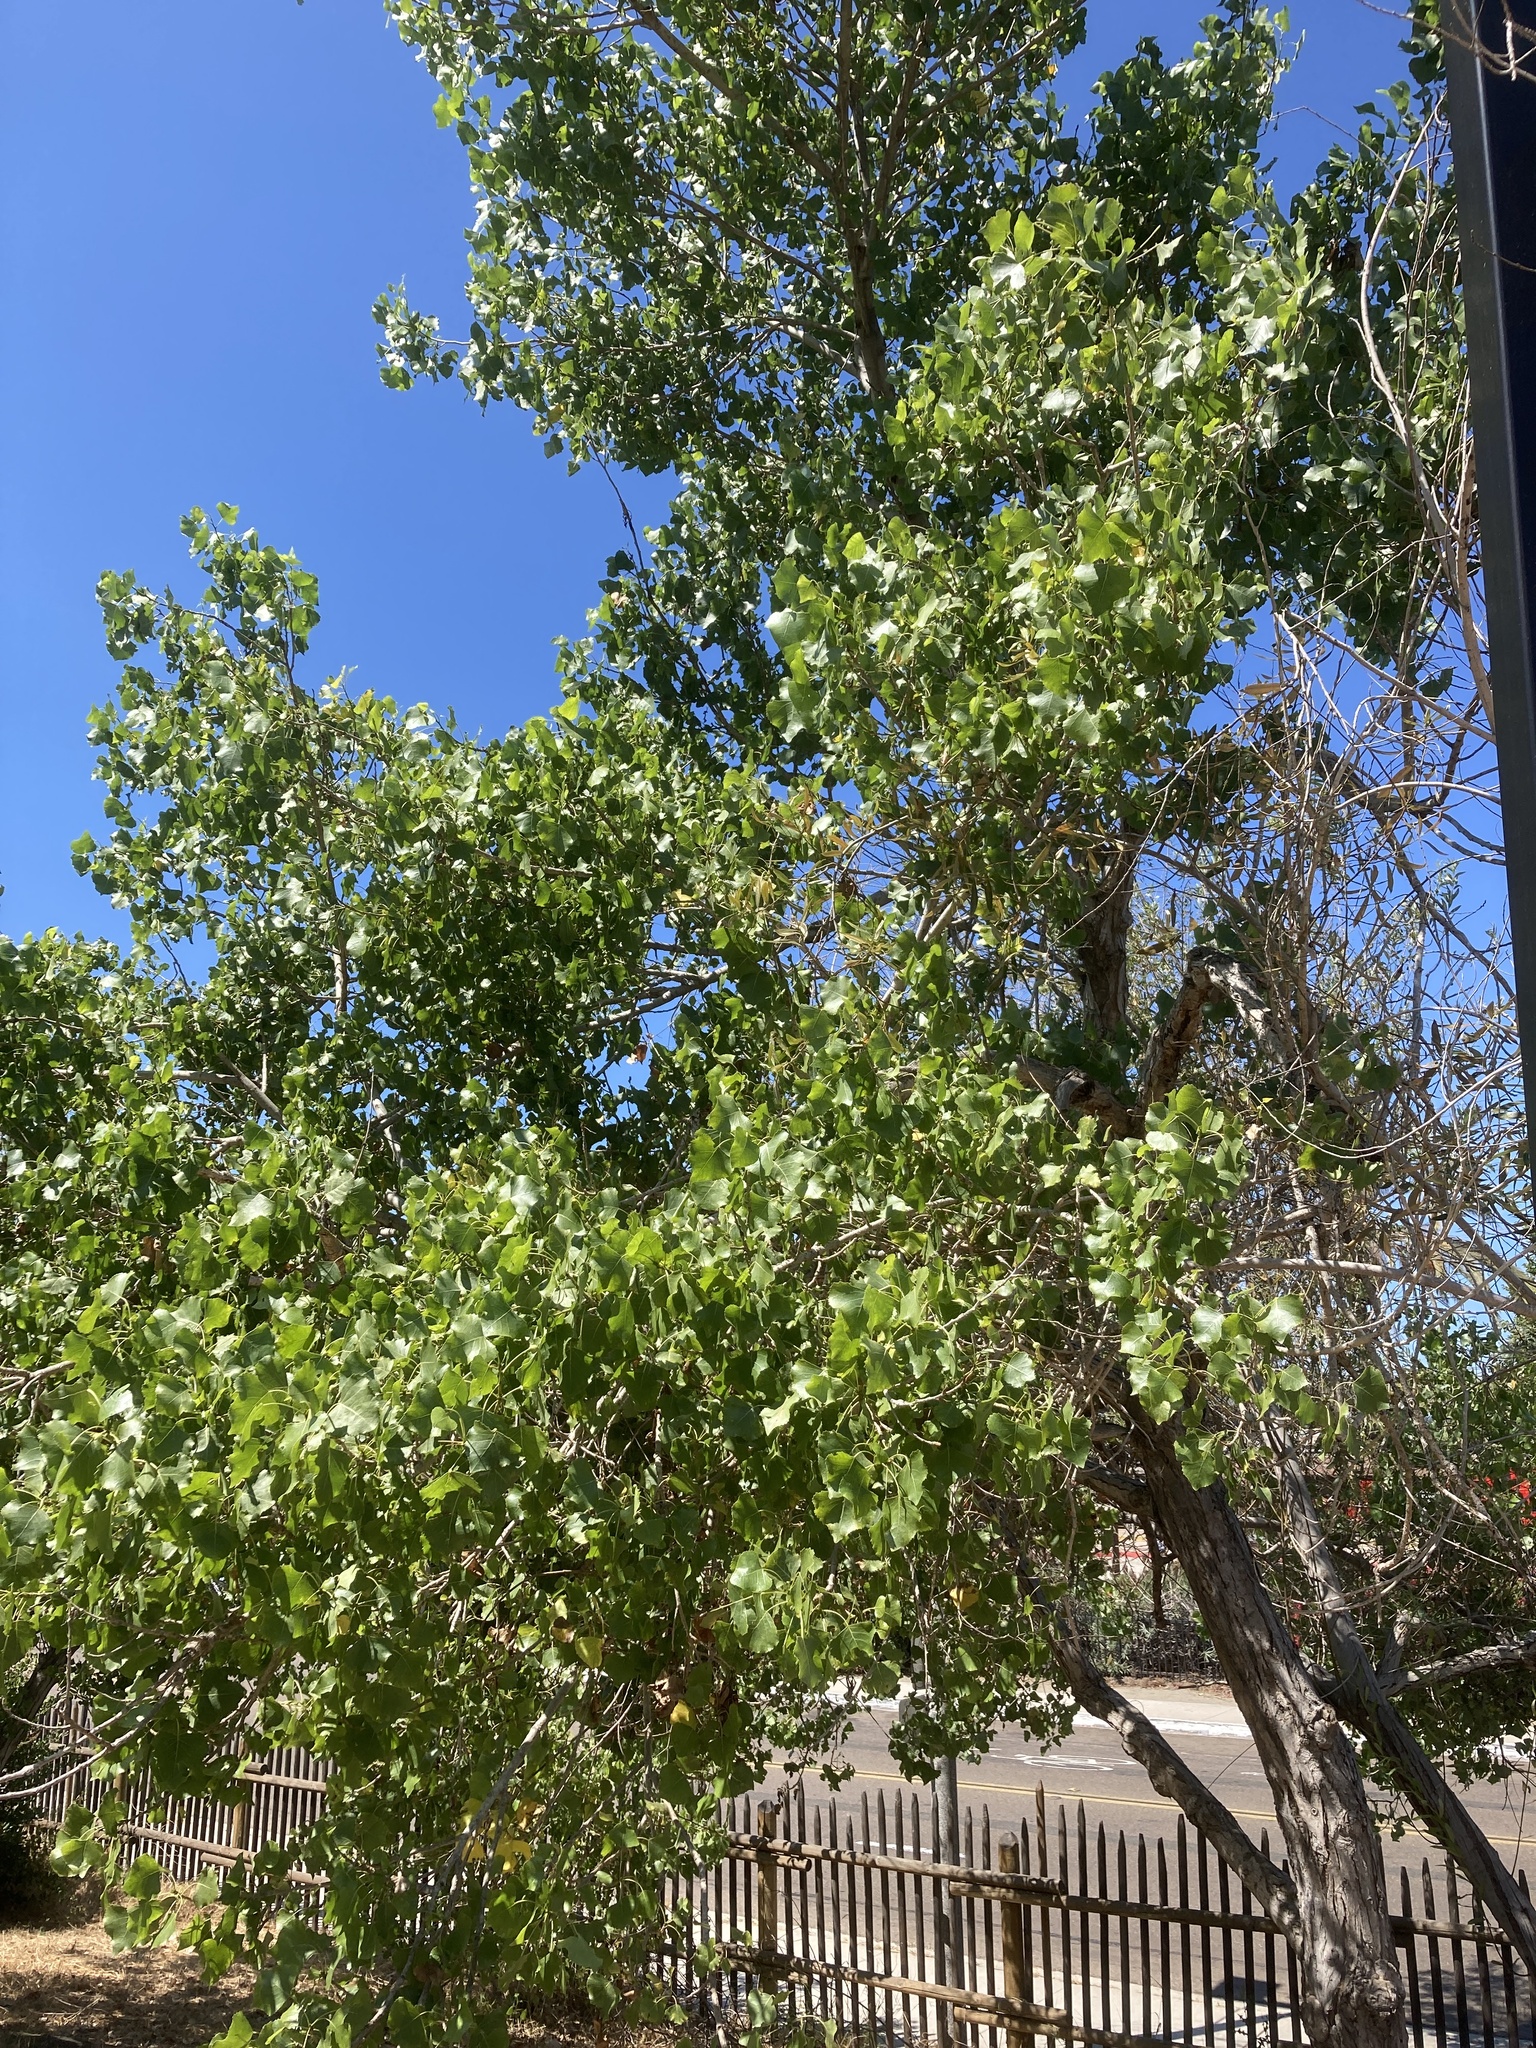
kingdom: Plantae
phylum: Tracheophyta
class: Magnoliopsida
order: Malpighiales
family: Salicaceae
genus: Populus
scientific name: Populus fremontii
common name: Fremont's cottonwood
